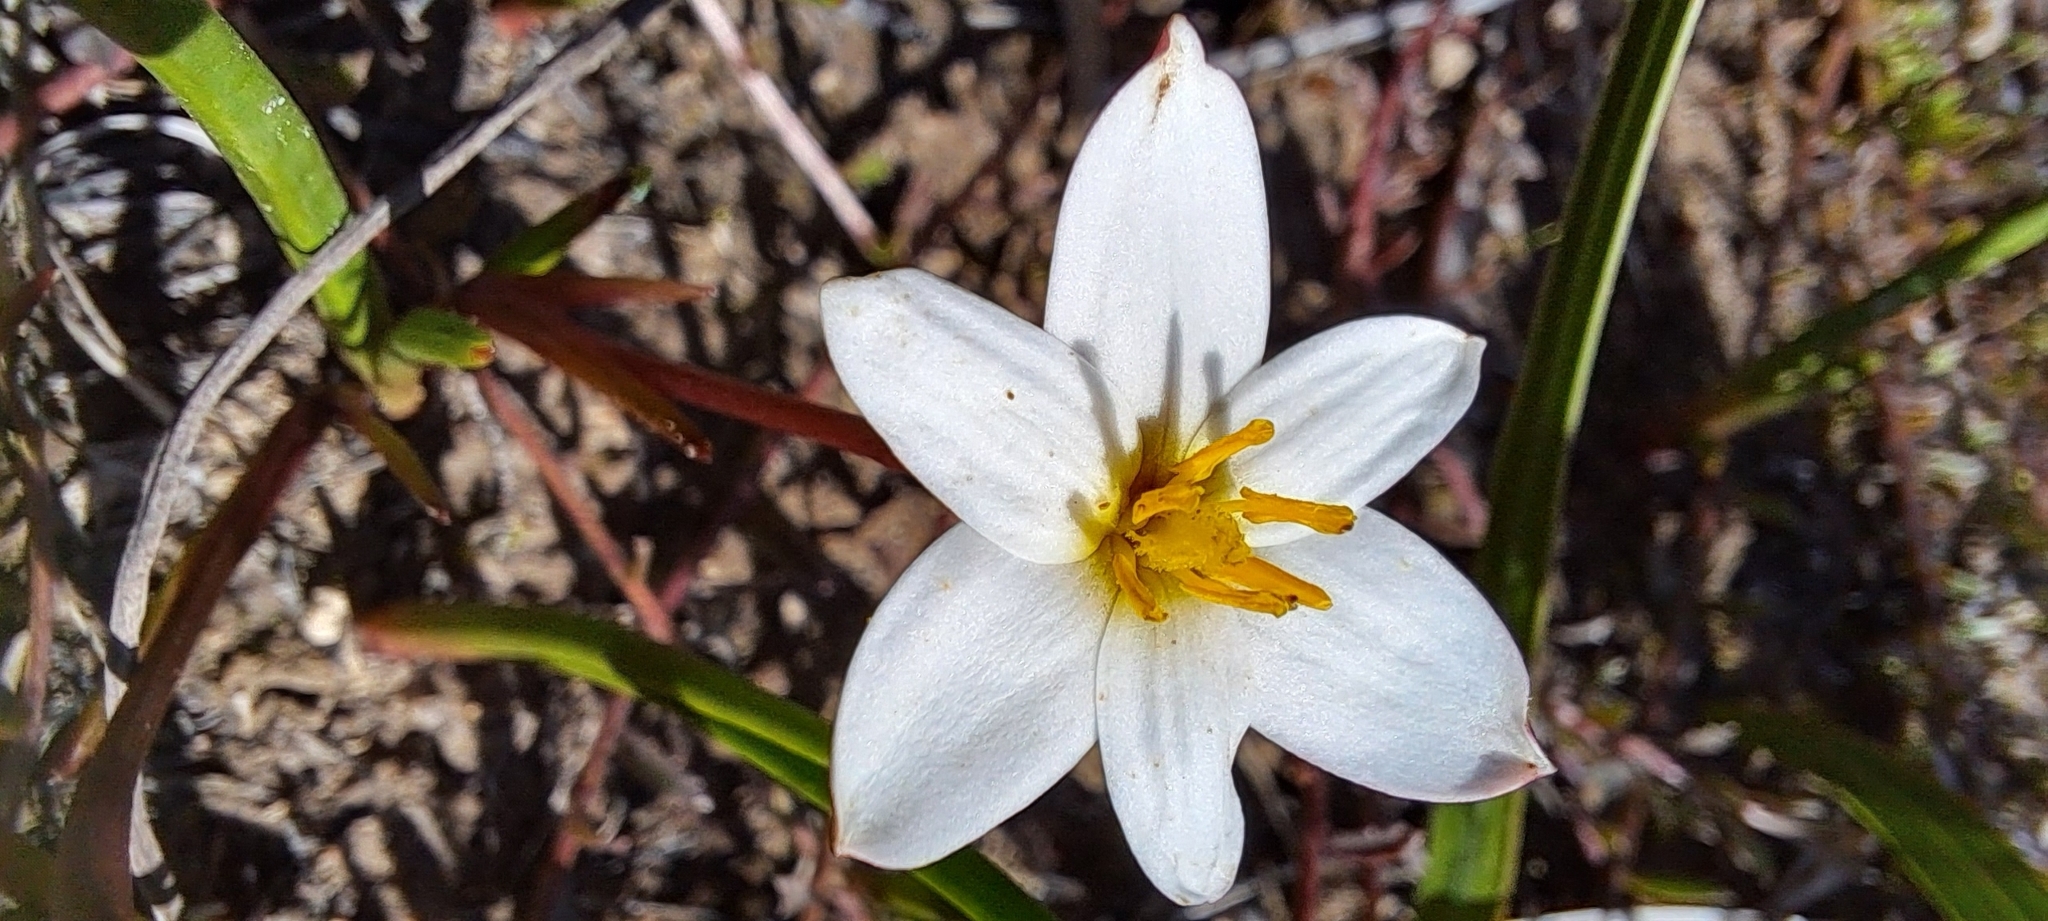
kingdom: Plantae
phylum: Tracheophyta
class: Liliopsida
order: Asparagales
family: Hypoxidaceae
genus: Pauridia
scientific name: Pauridia alba
